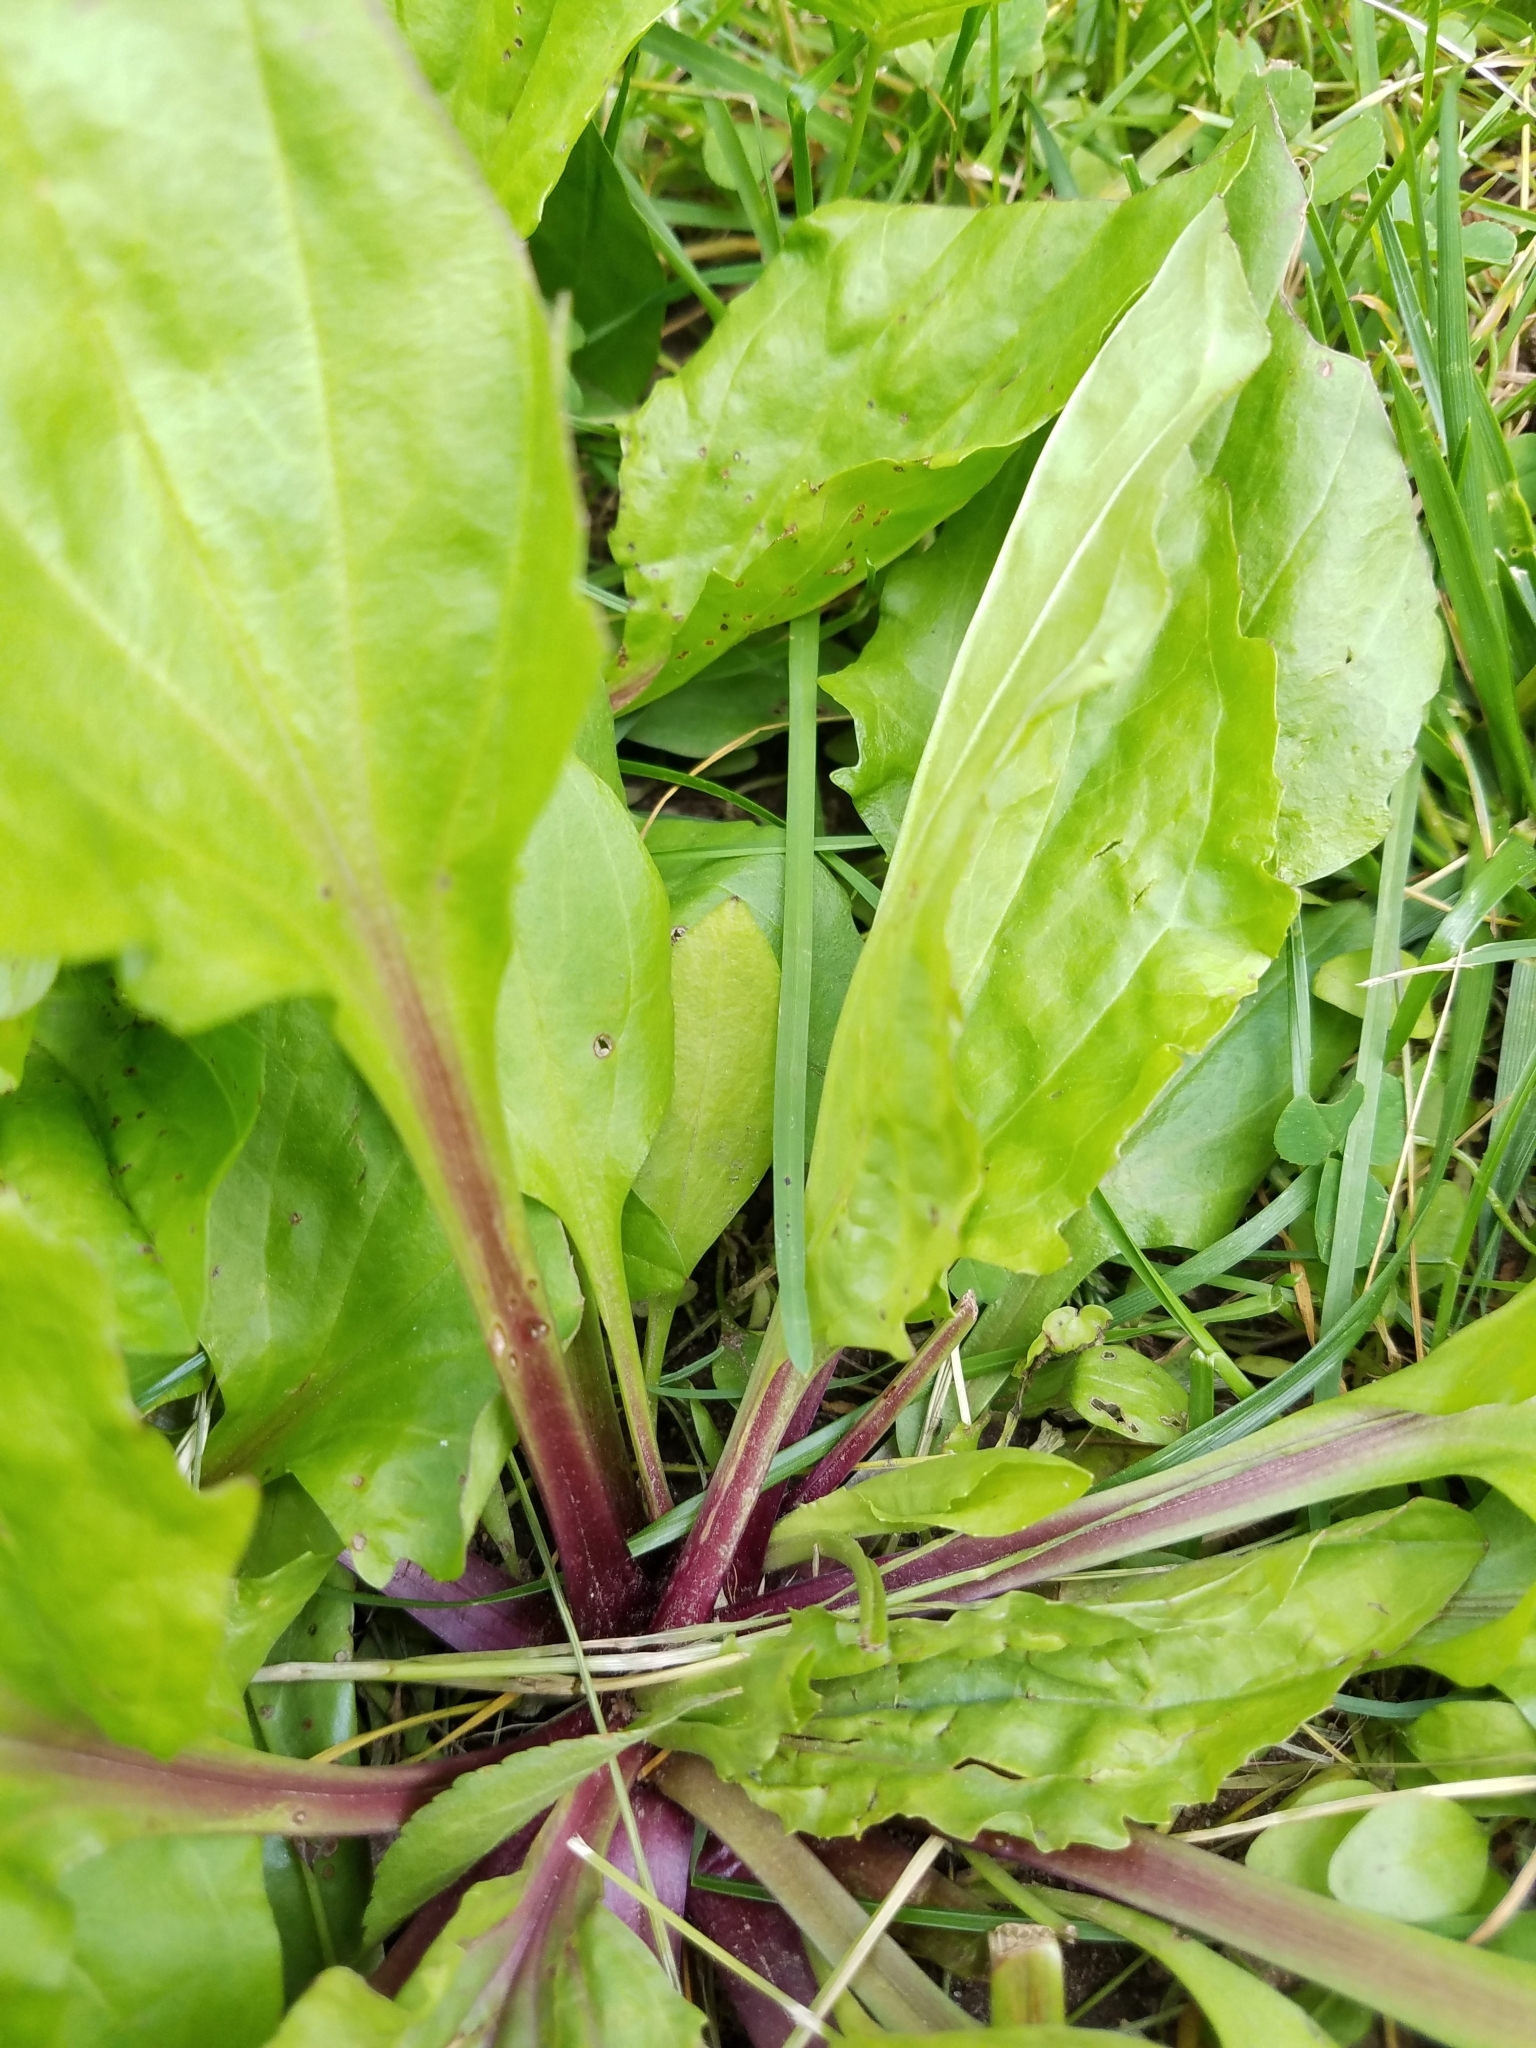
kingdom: Plantae
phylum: Tracheophyta
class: Magnoliopsida
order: Lamiales
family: Plantaginaceae
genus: Plantago
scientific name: Plantago rugelii
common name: American plantain
